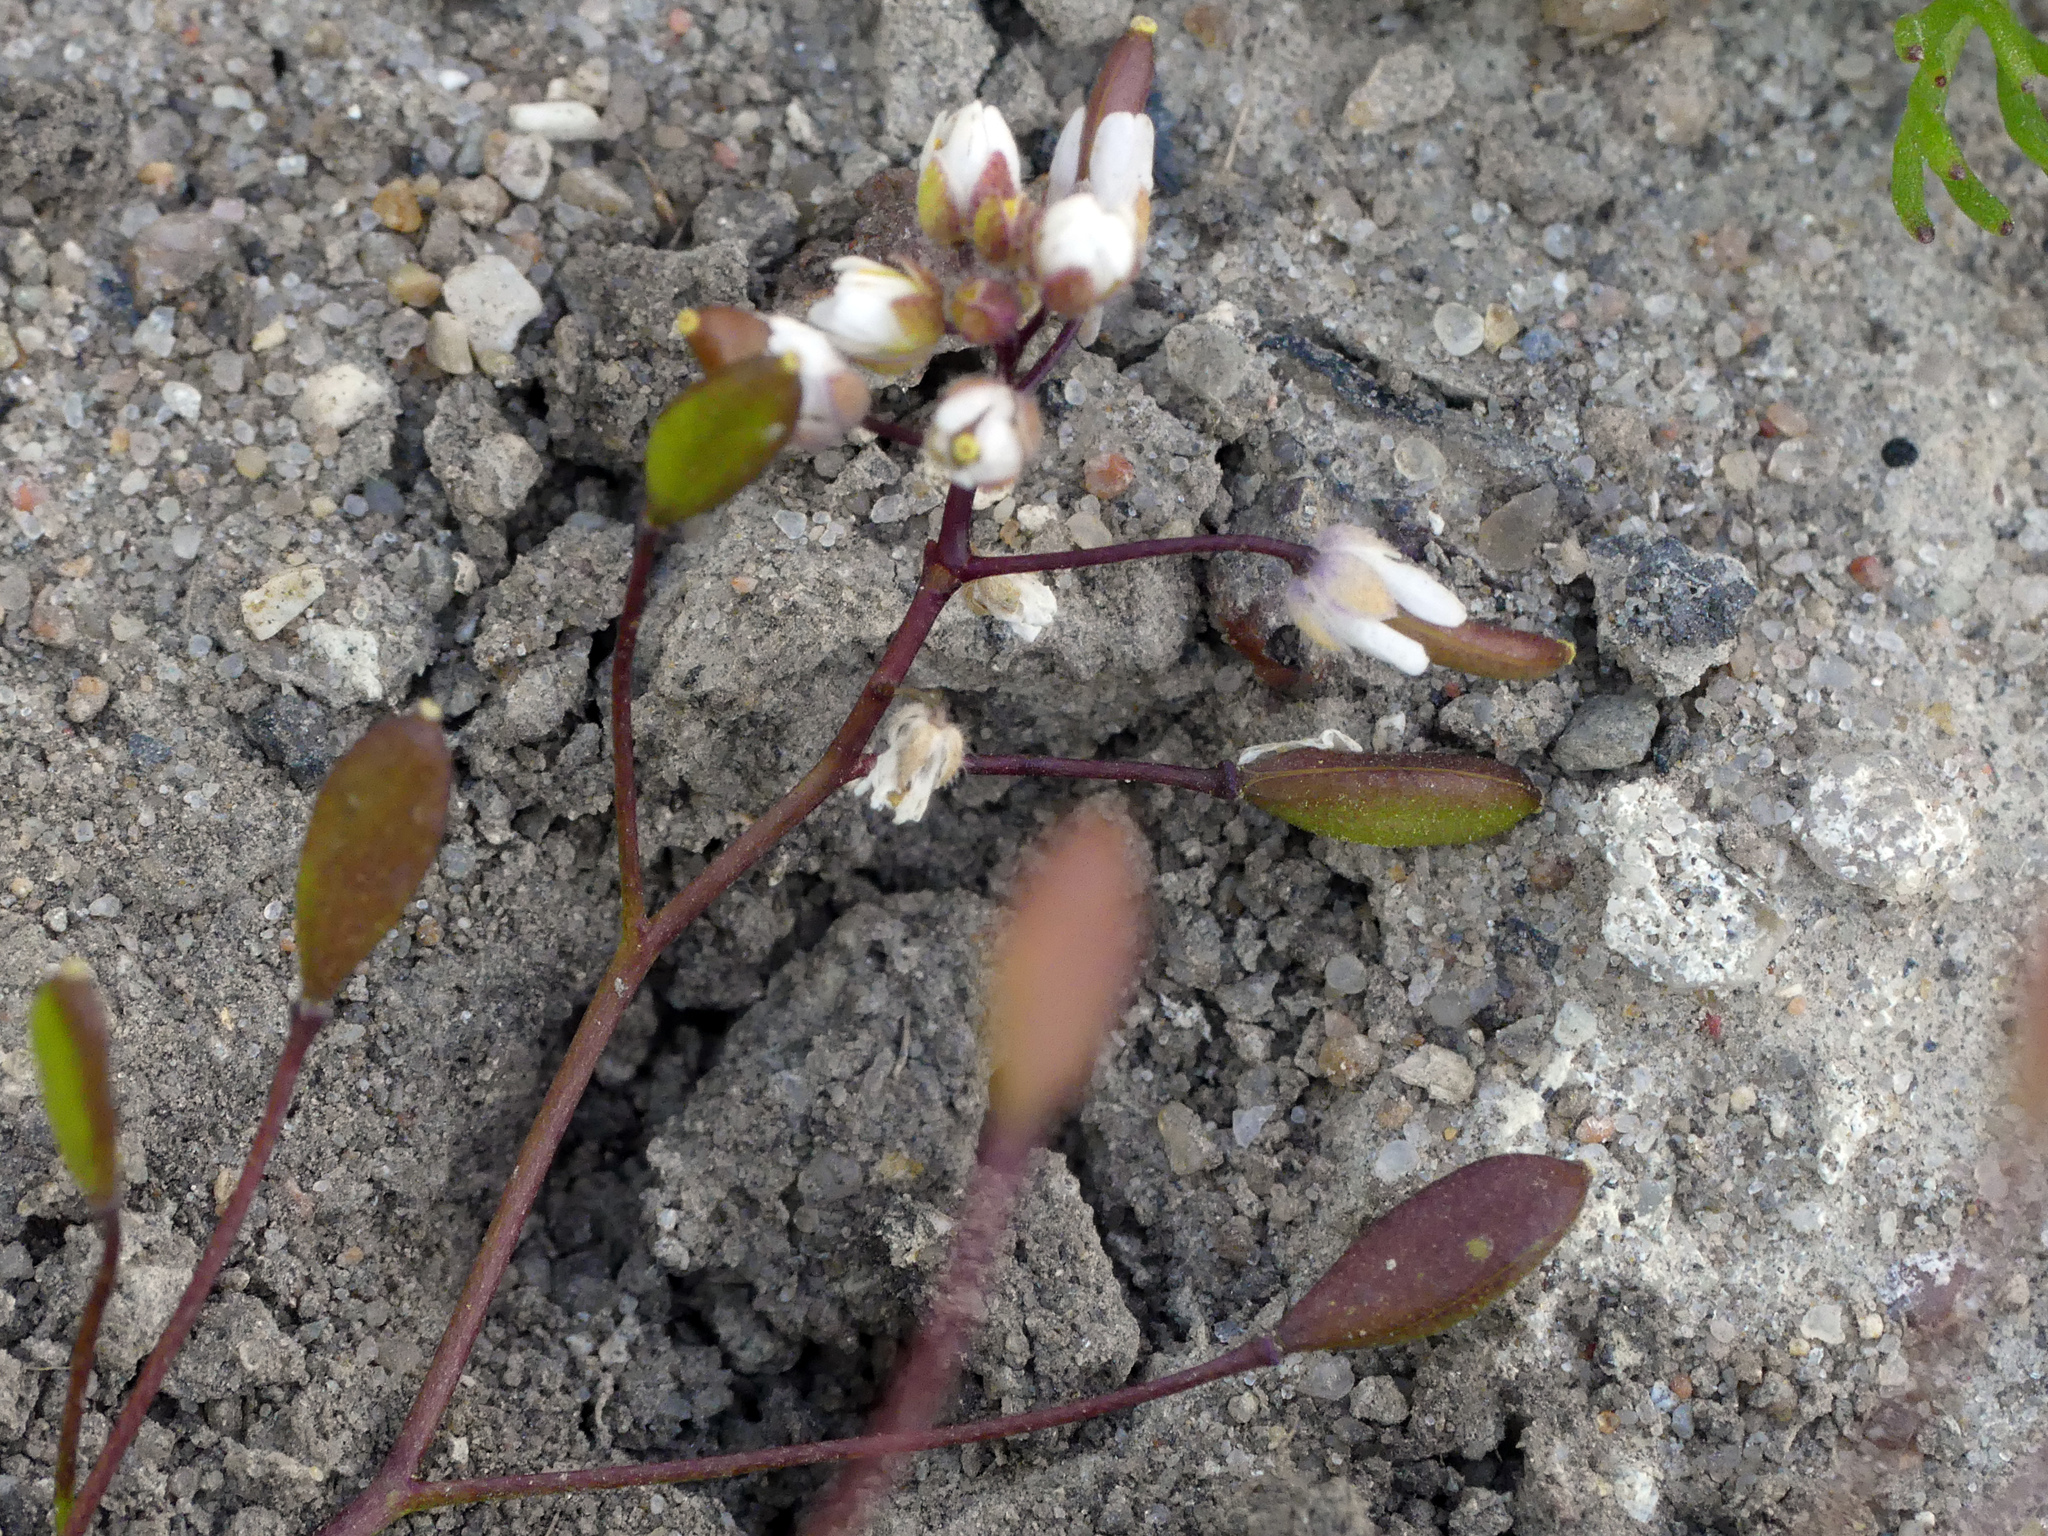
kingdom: Plantae
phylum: Tracheophyta
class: Magnoliopsida
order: Brassicales
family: Brassicaceae
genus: Draba
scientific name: Draba verna
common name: Spring draba
